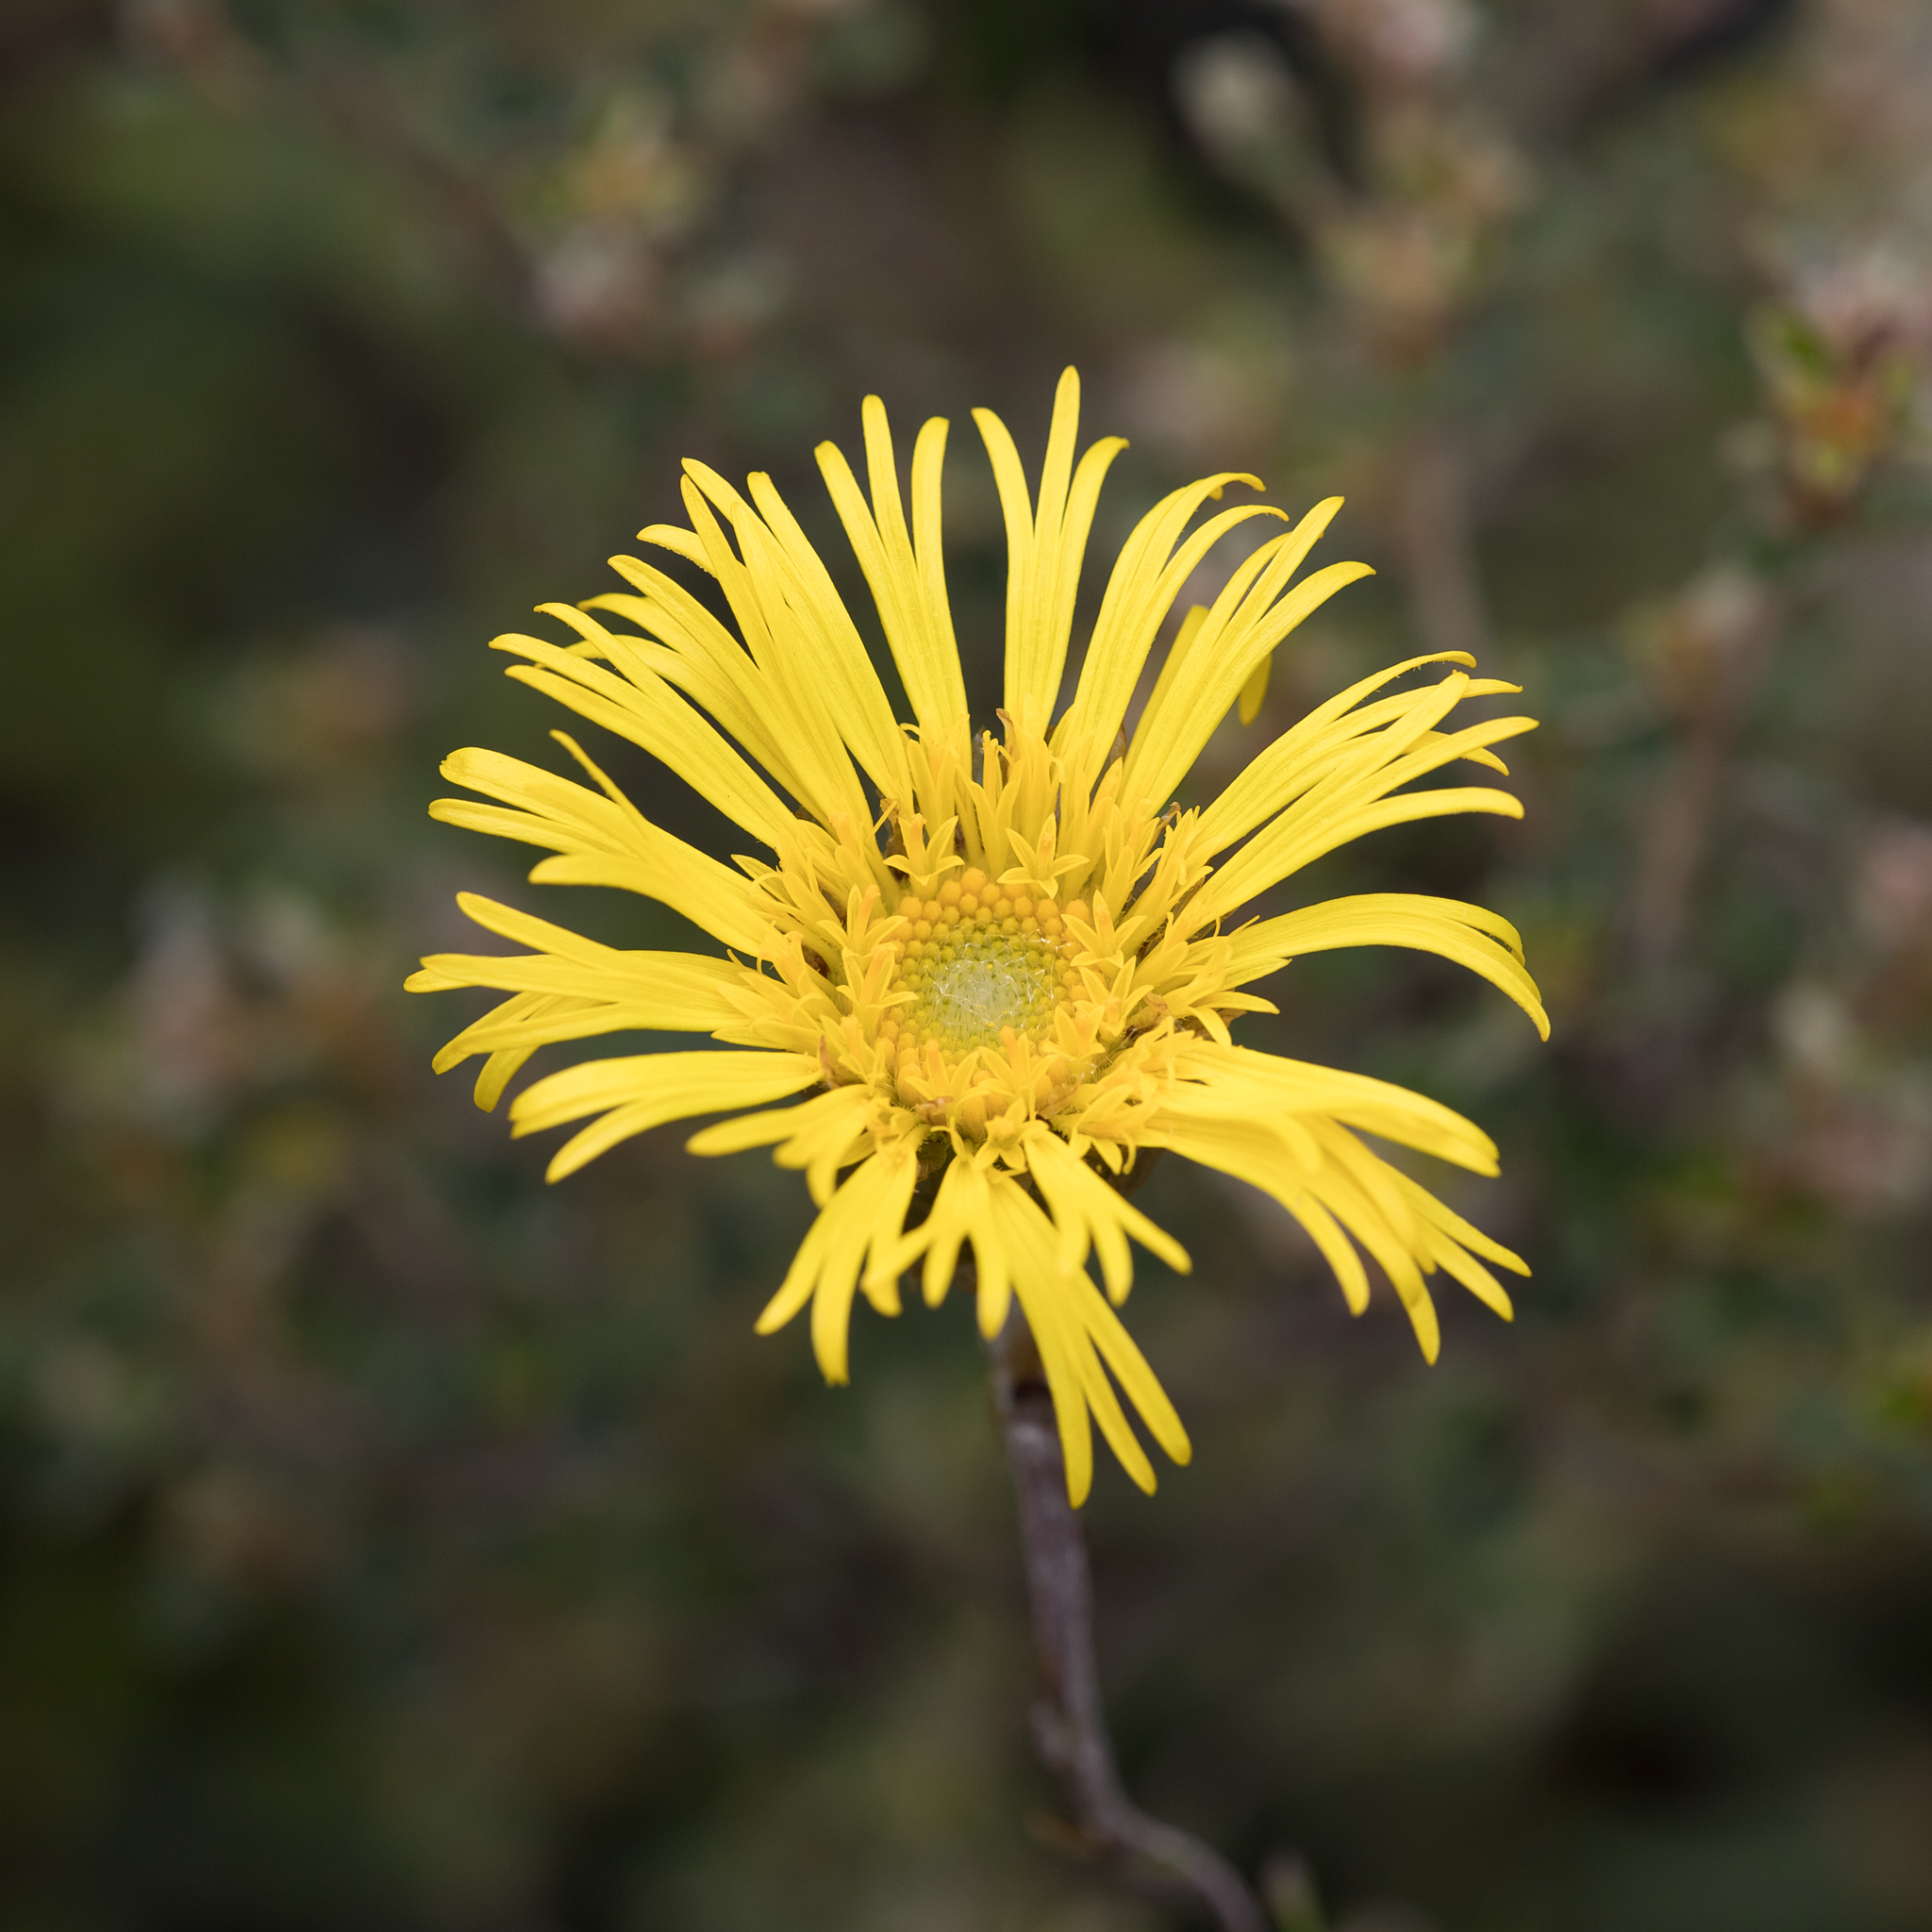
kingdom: Plantae
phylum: Tracheophyta
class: Magnoliopsida
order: Asterales
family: Asteraceae
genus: Podolepis
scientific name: Podolepis jaceoides
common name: Showy copper-wired daisy
